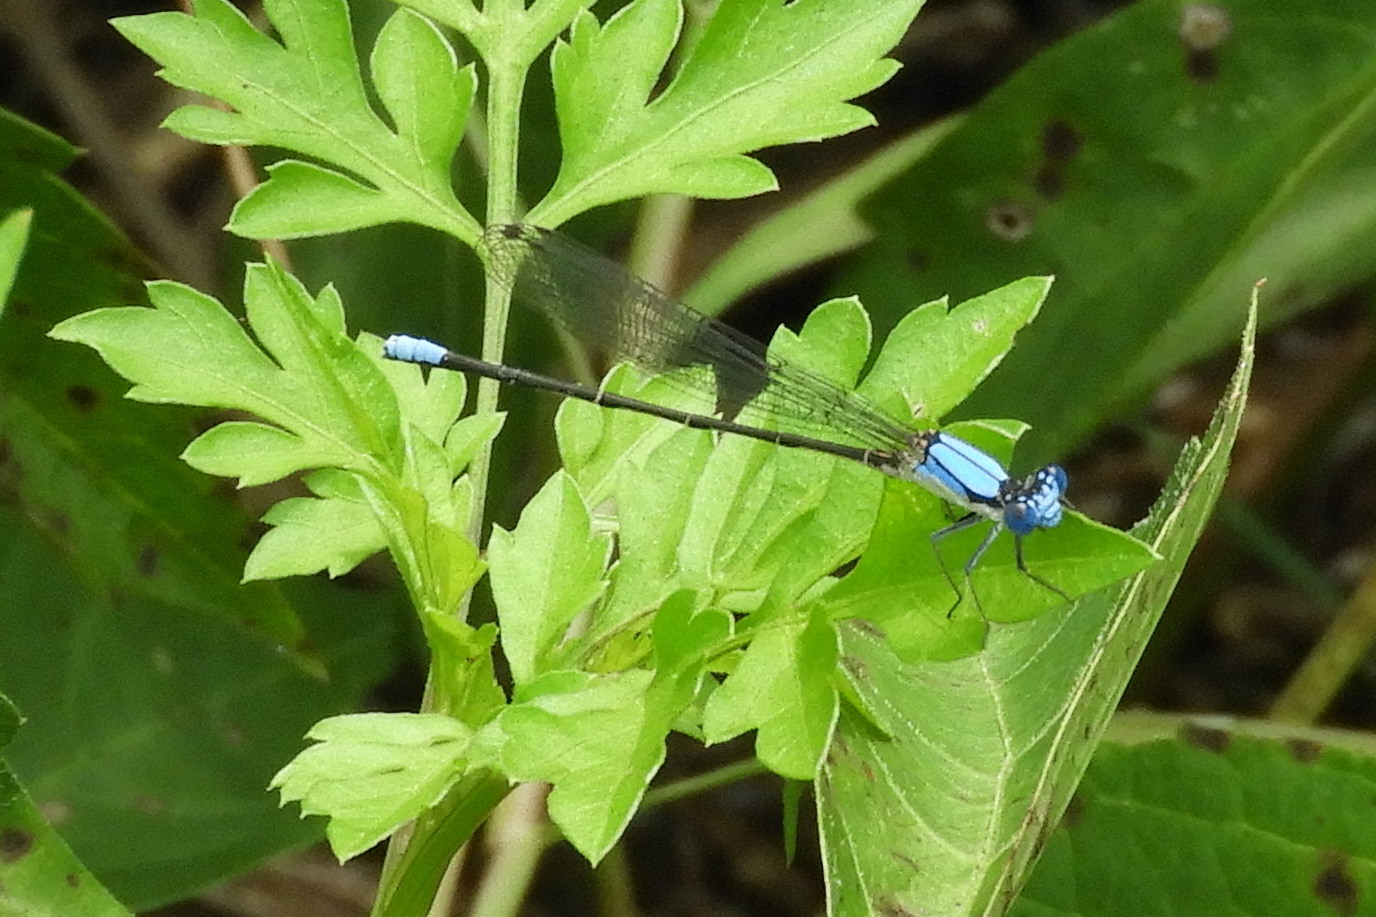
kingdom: Animalia
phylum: Arthropoda
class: Insecta
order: Odonata
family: Coenagrionidae
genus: Argia
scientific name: Argia apicalis
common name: Blue-fronted dancer
